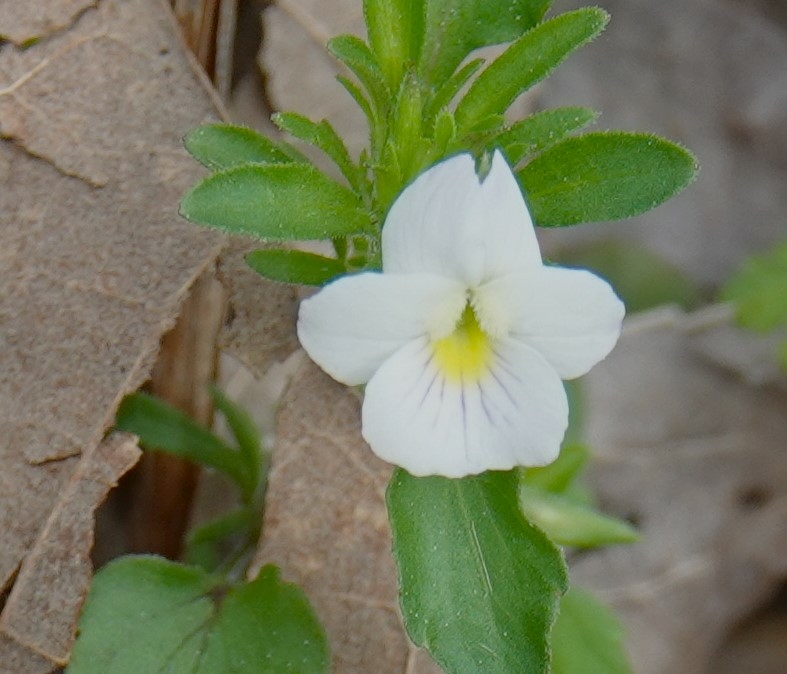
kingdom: Plantae
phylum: Tracheophyta
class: Magnoliopsida
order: Malpighiales
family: Violaceae
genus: Viola
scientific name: Viola rafinesquei
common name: American field pansy
